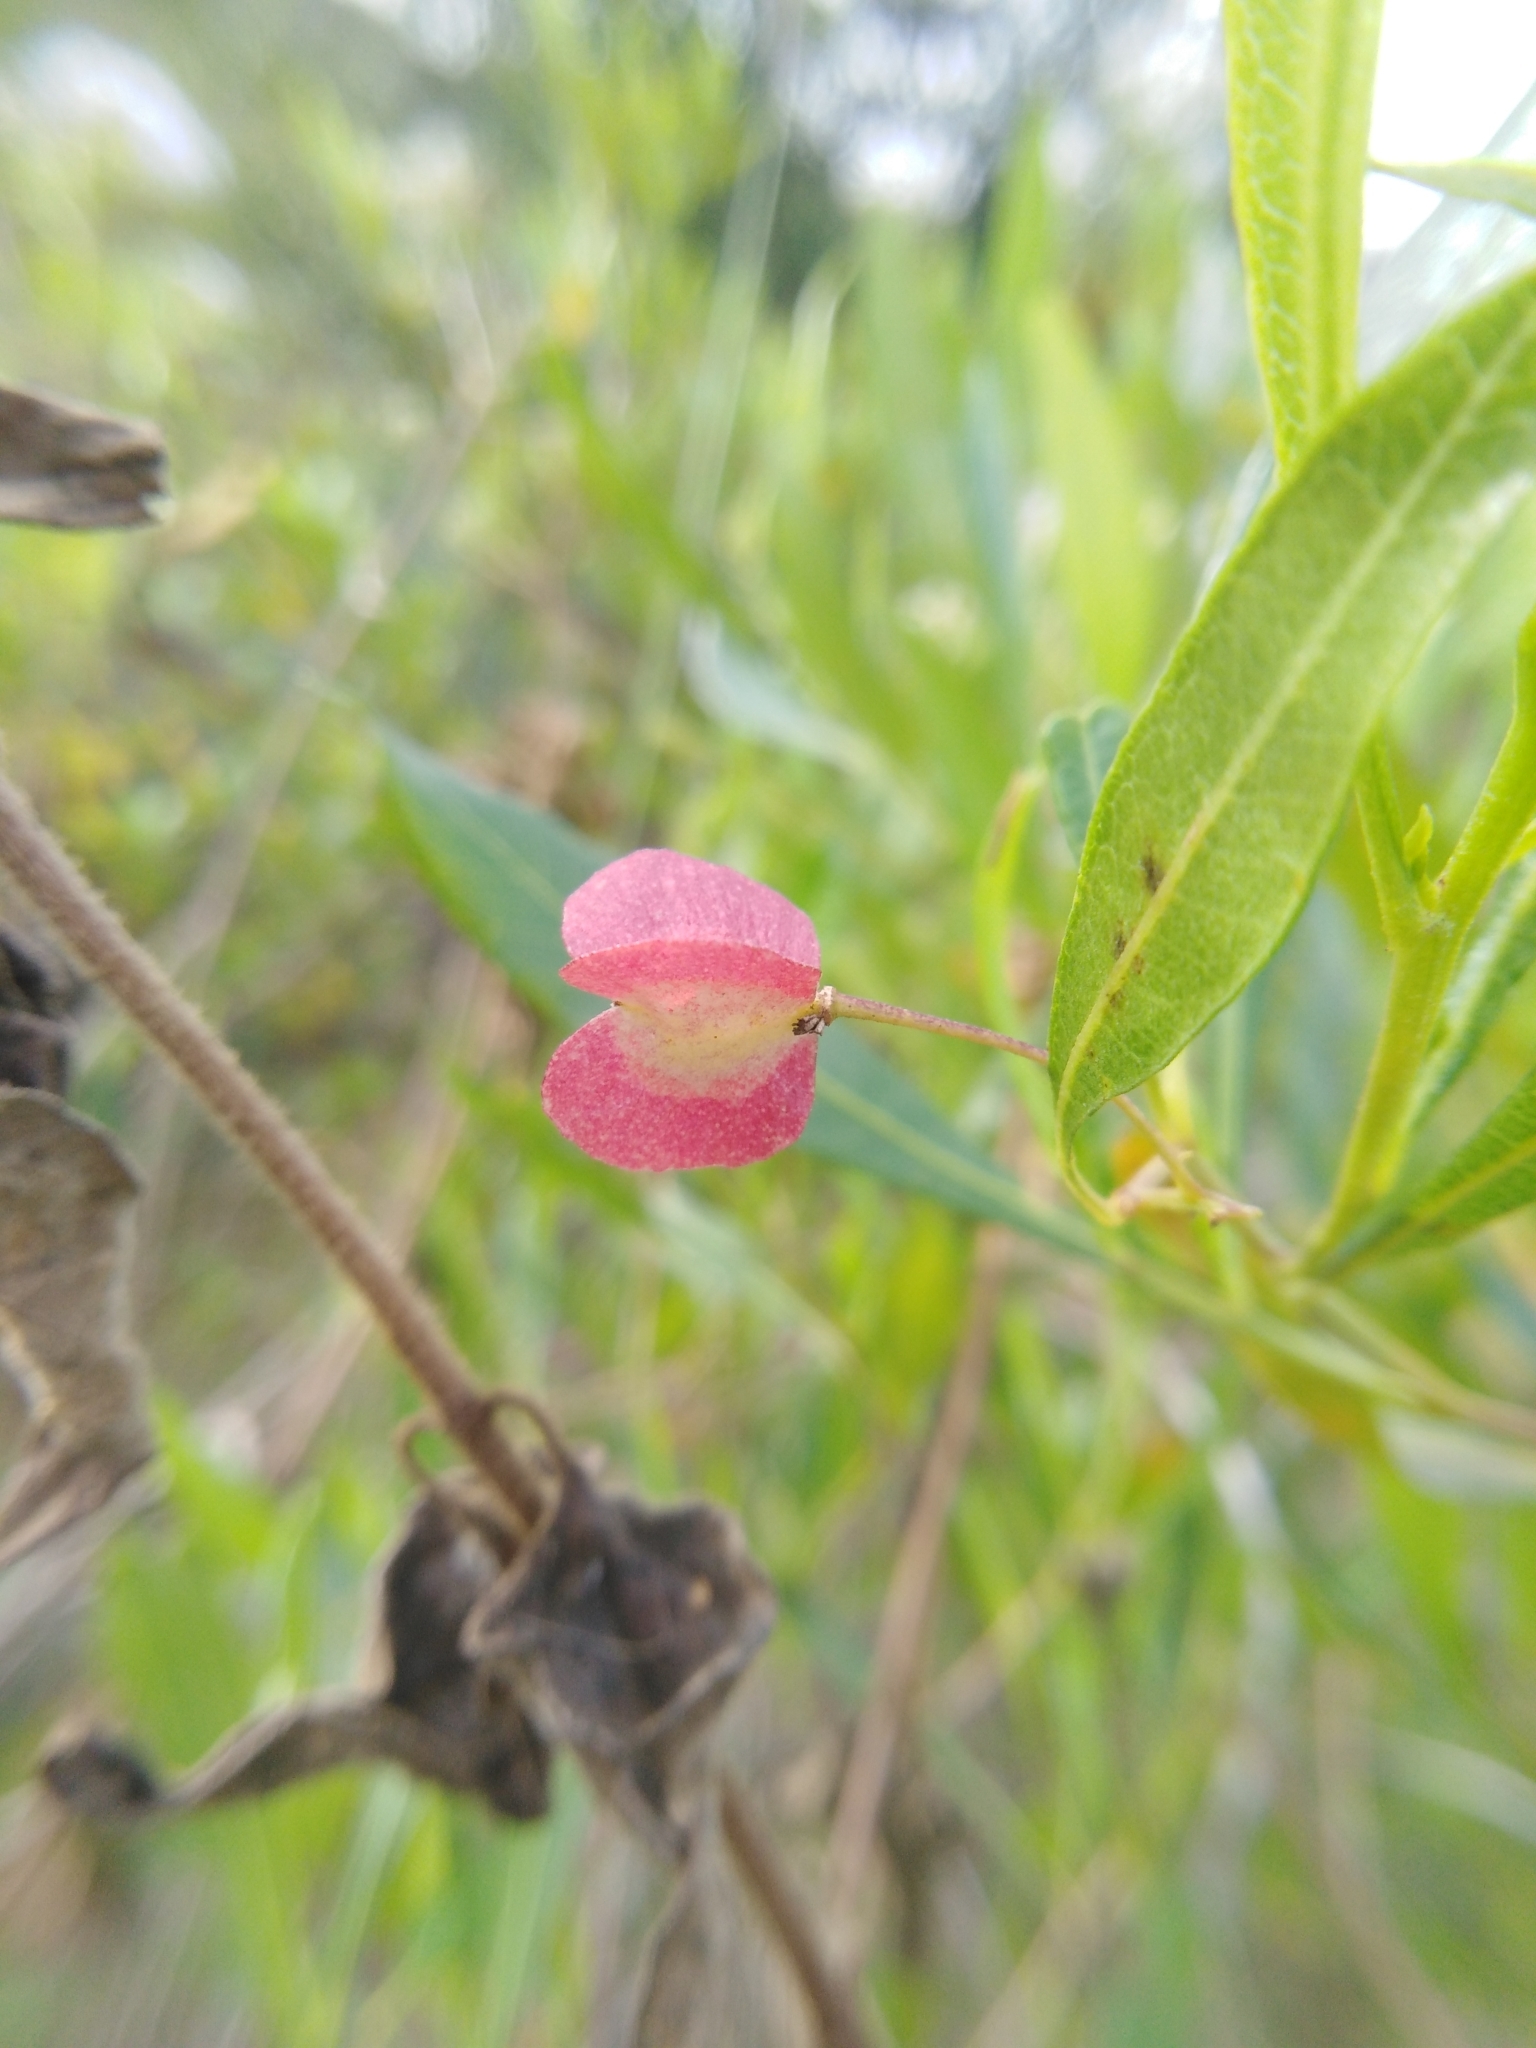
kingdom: Plantae
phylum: Tracheophyta
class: Magnoliopsida
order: Sapindales
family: Sapindaceae
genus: Dodonaea
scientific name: Dodonaea viscosa
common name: Hopbush
